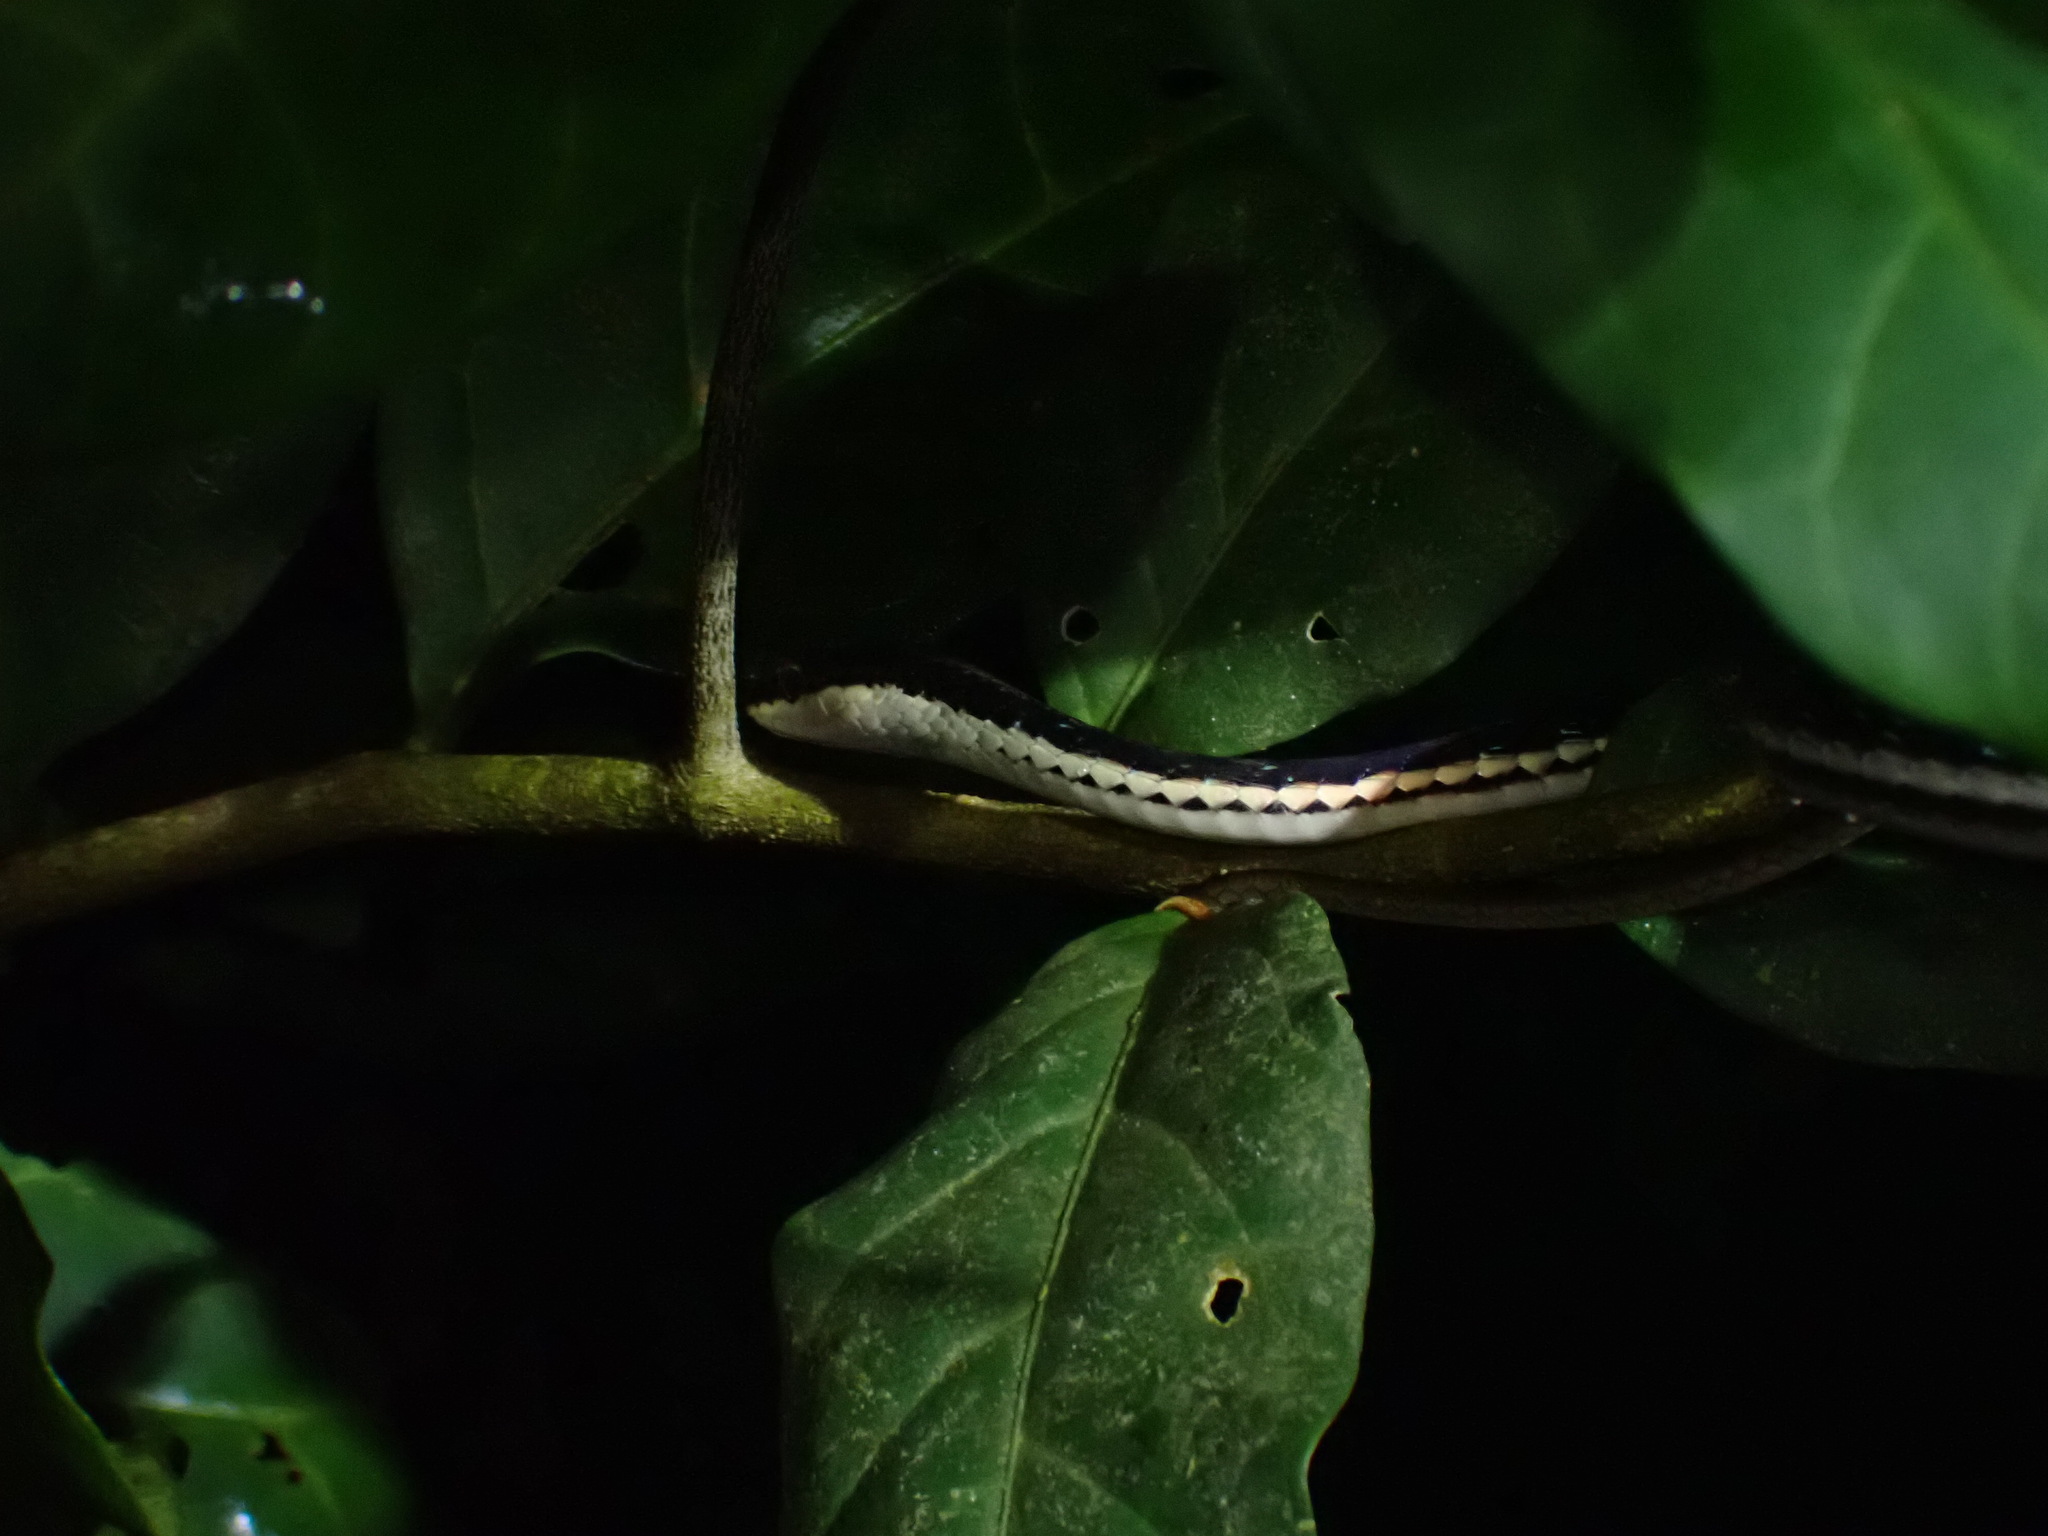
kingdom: Animalia
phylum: Chordata
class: Squamata
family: Colubridae
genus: Dendrelaphis
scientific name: Dendrelaphis pictus
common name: Indonesian bronze-back
